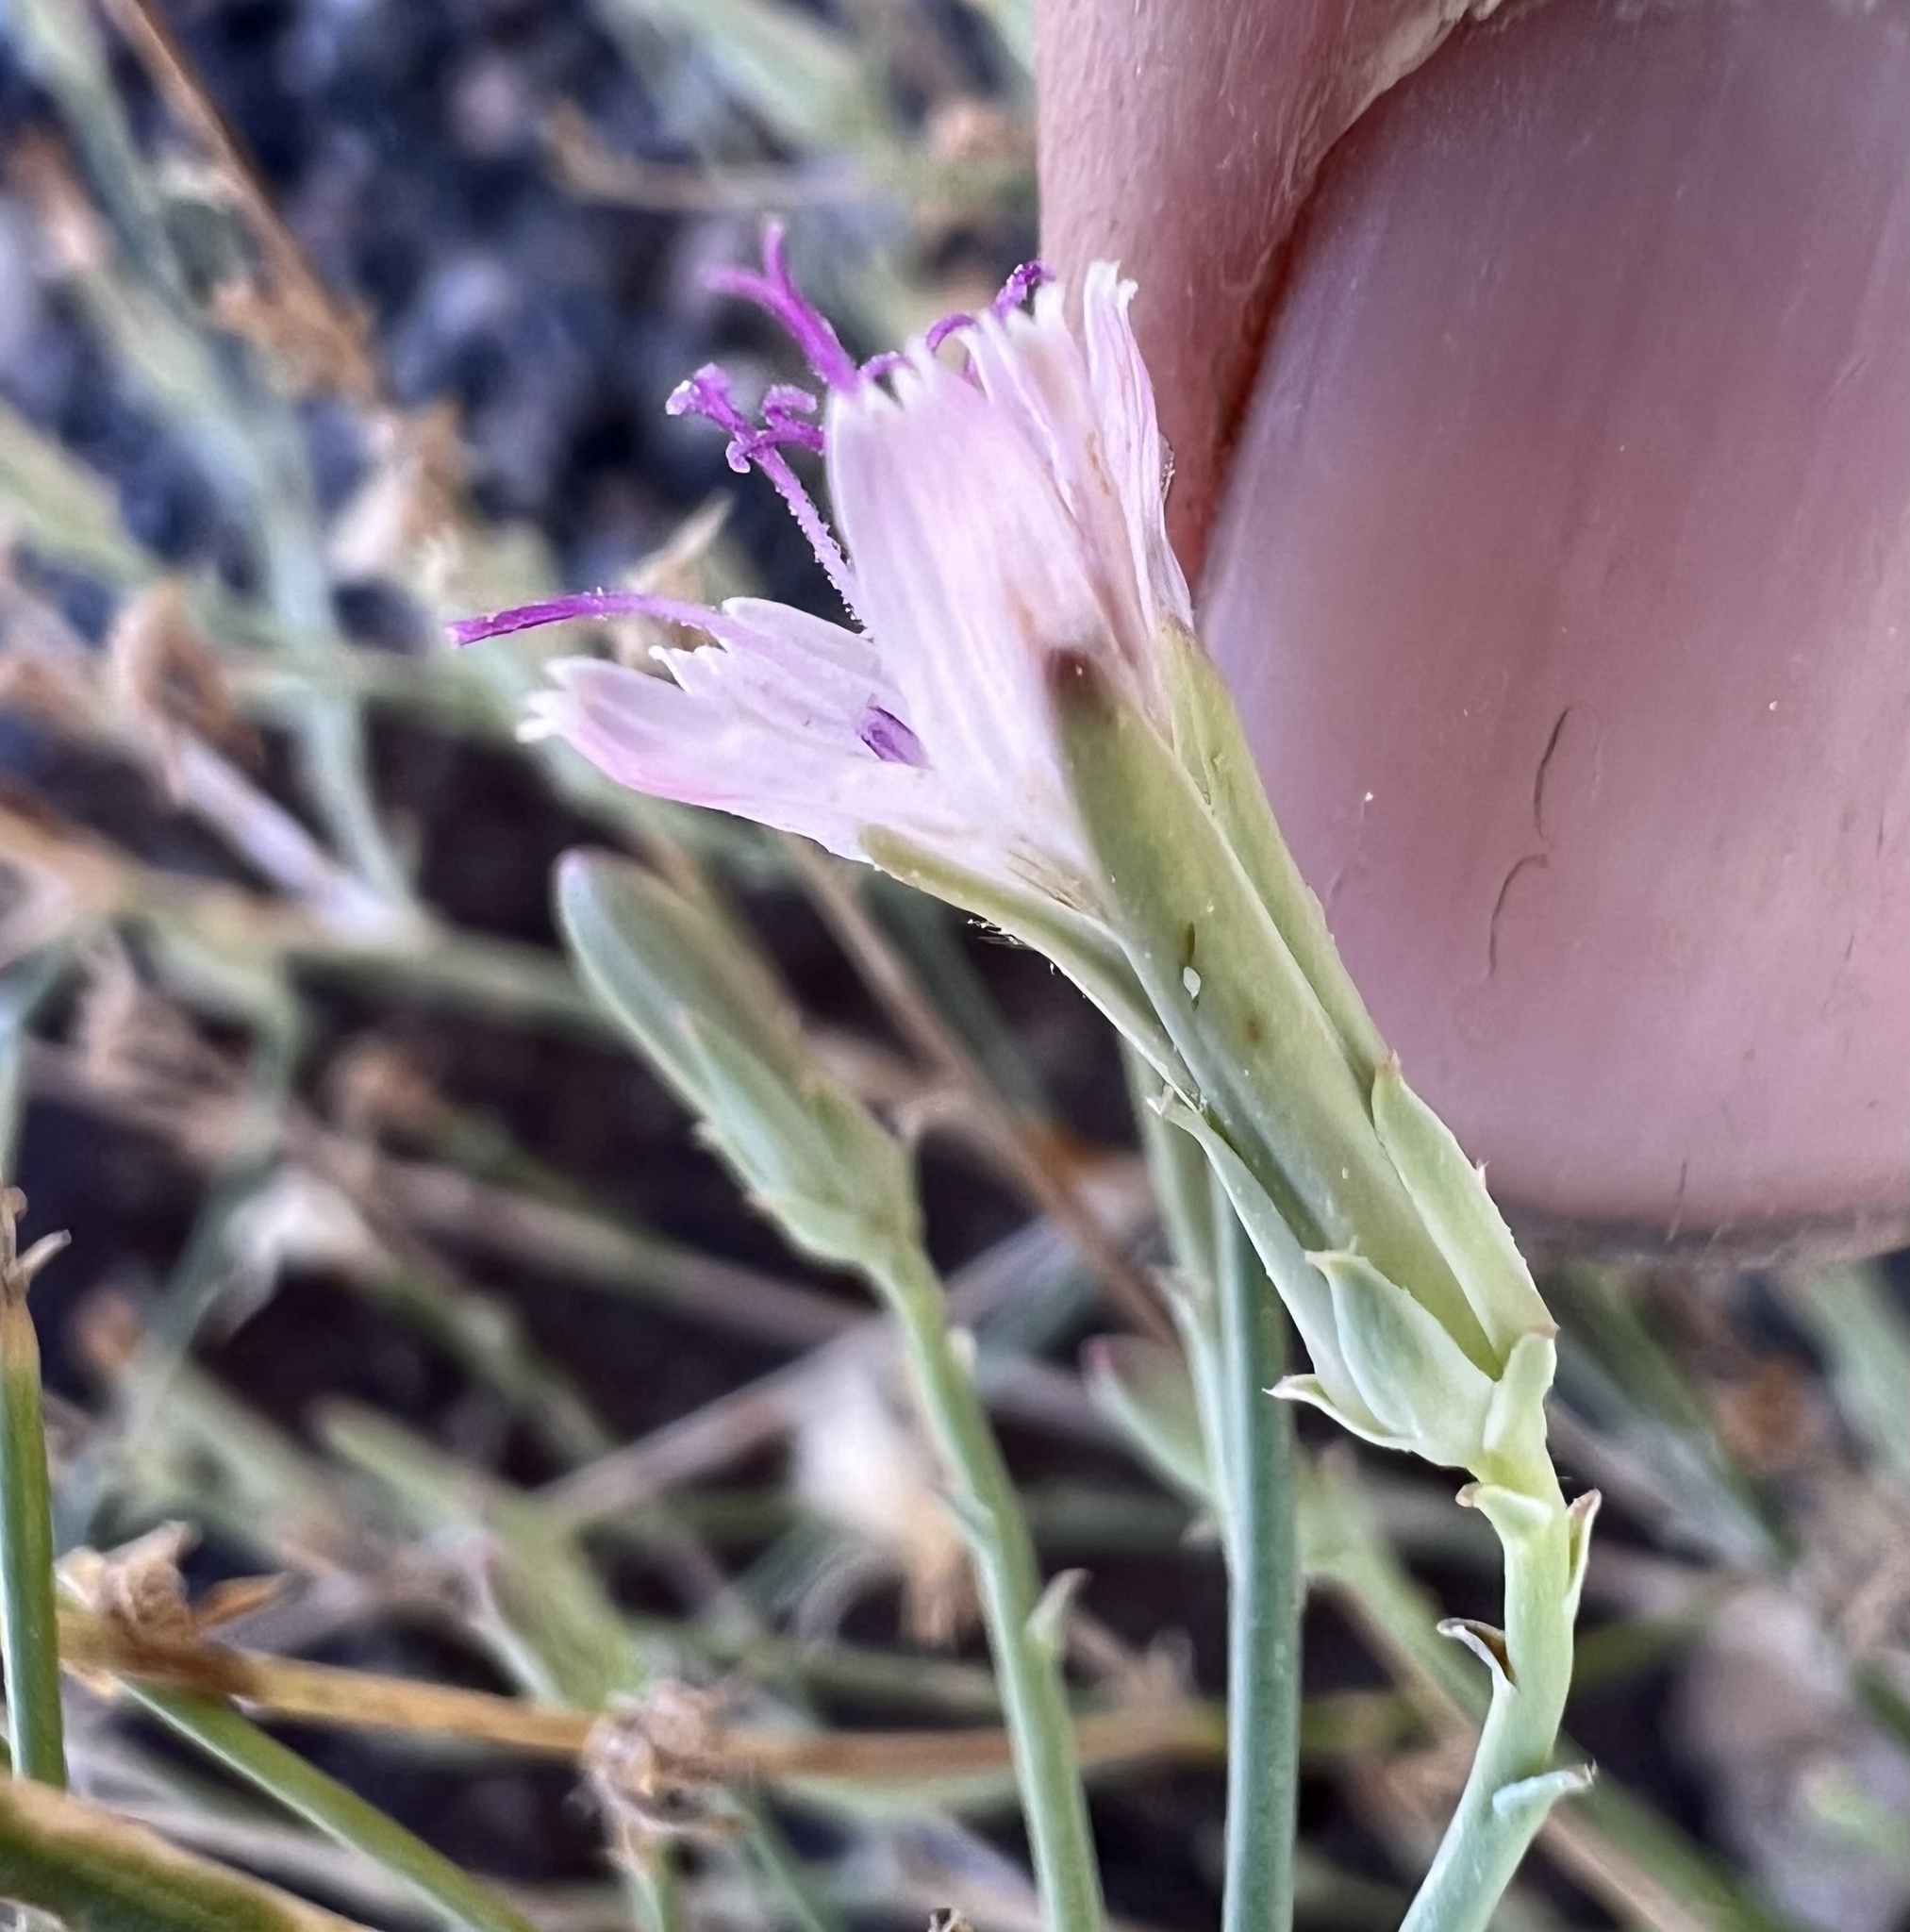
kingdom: Plantae
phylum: Tracheophyta
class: Magnoliopsida
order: Asterales
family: Asteraceae
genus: Stephanomeria
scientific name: Stephanomeria pauciflora
